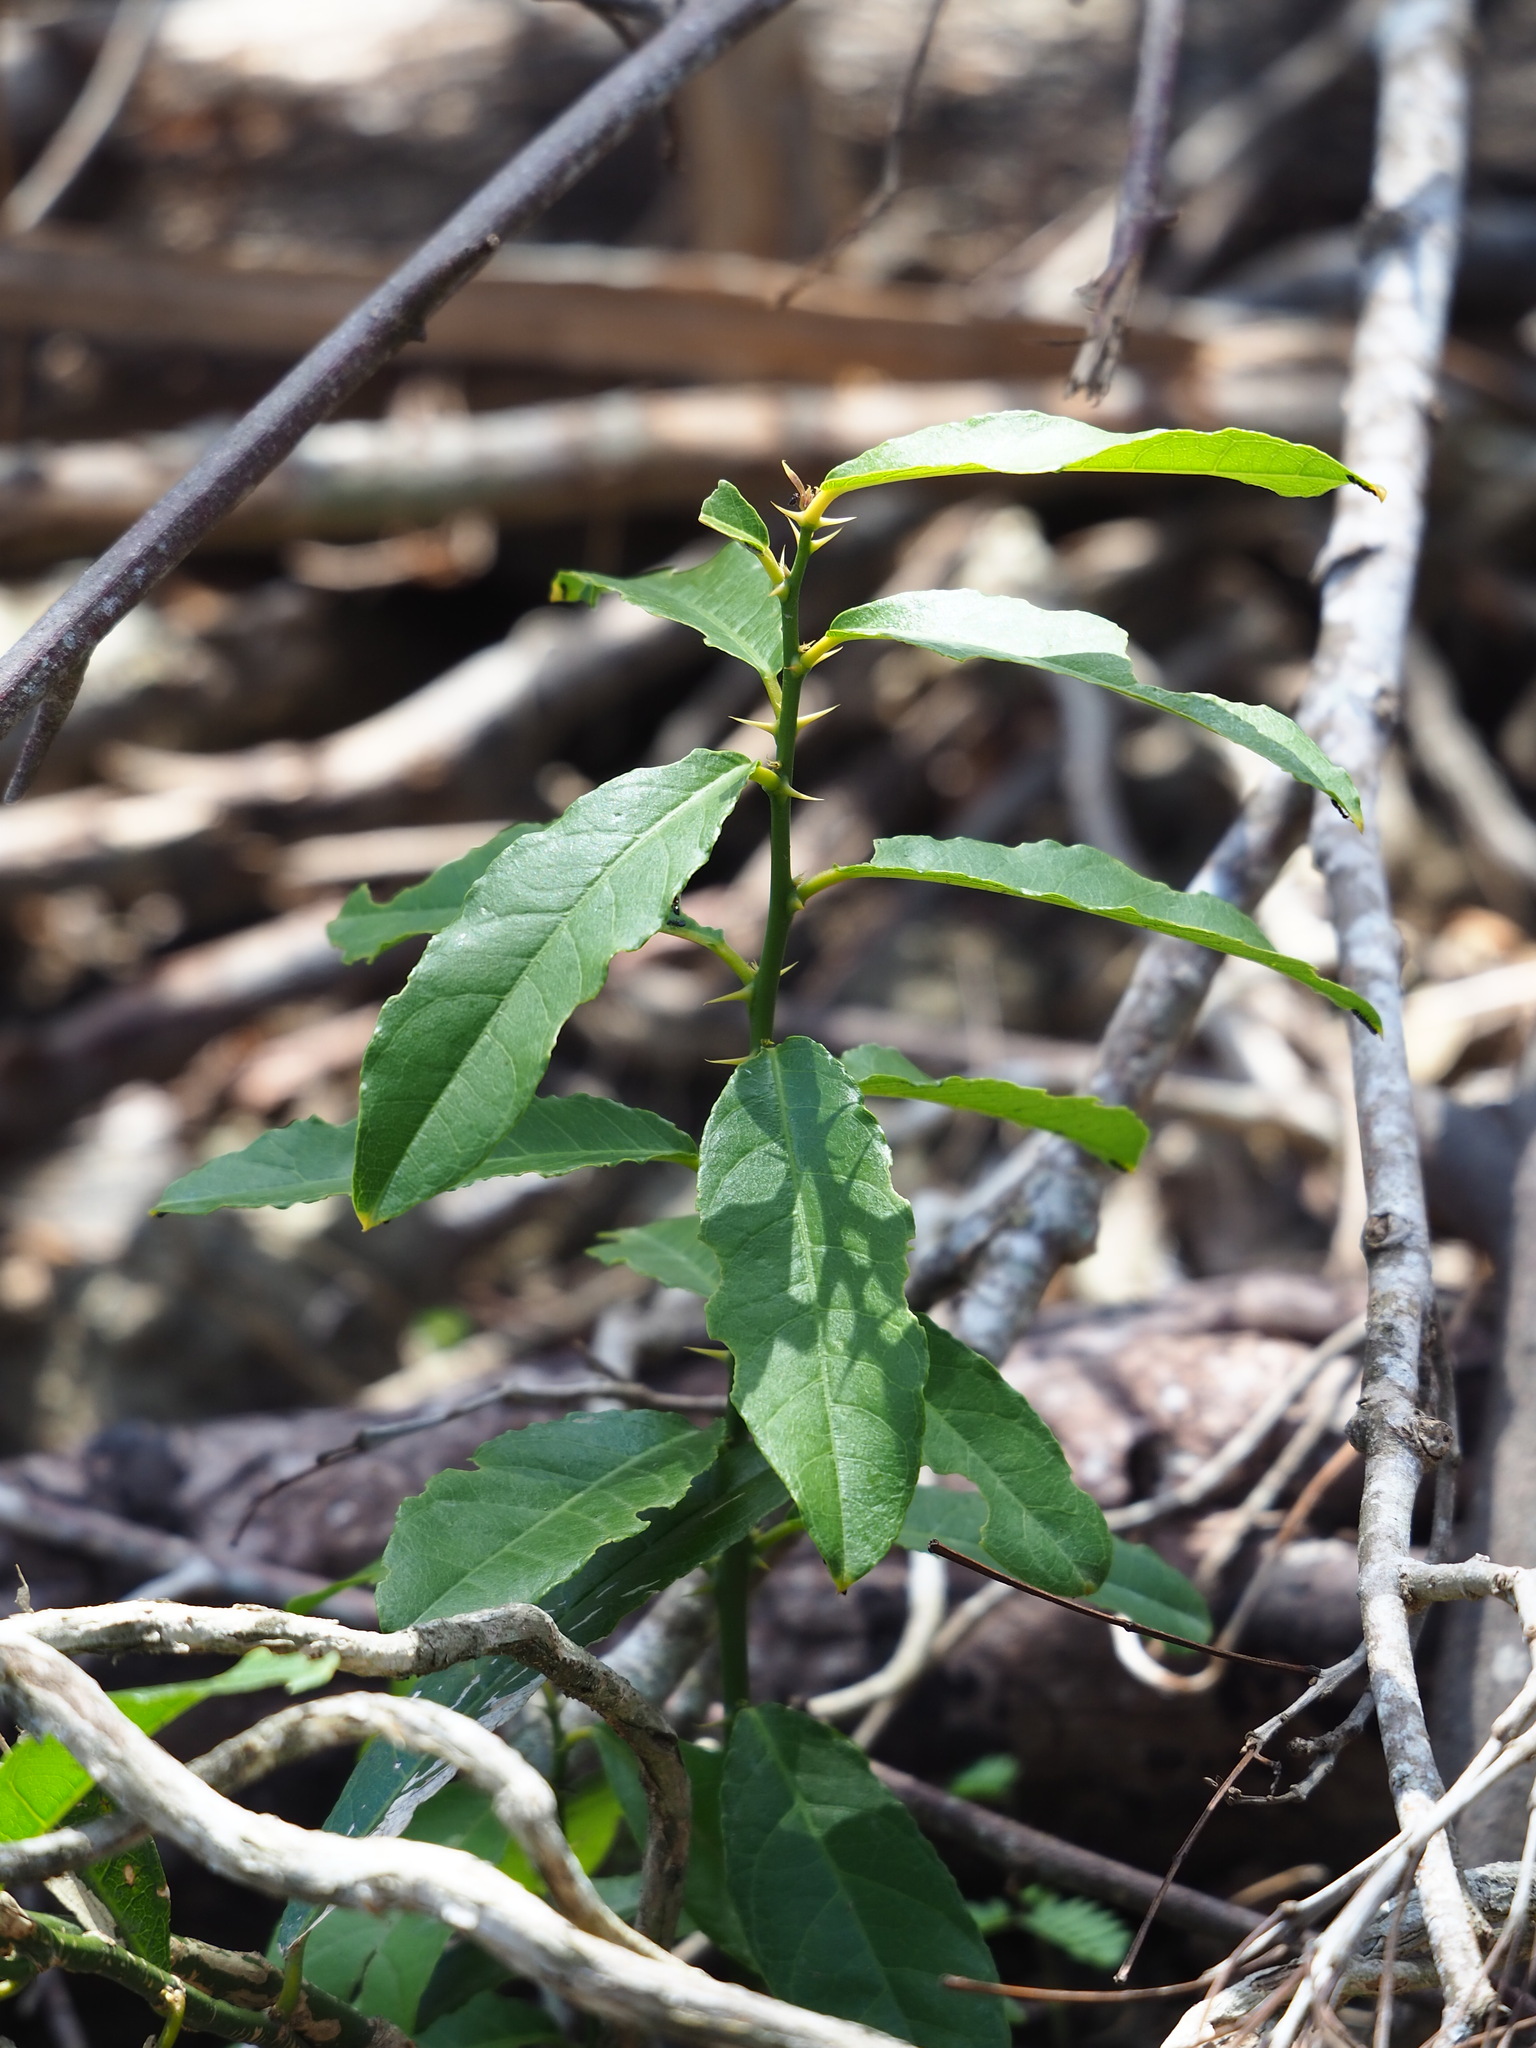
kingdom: Plantae
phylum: Tracheophyta
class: Magnoliopsida
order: Brassicales
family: Capparaceae
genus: Capparis
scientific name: Capparis henryi
